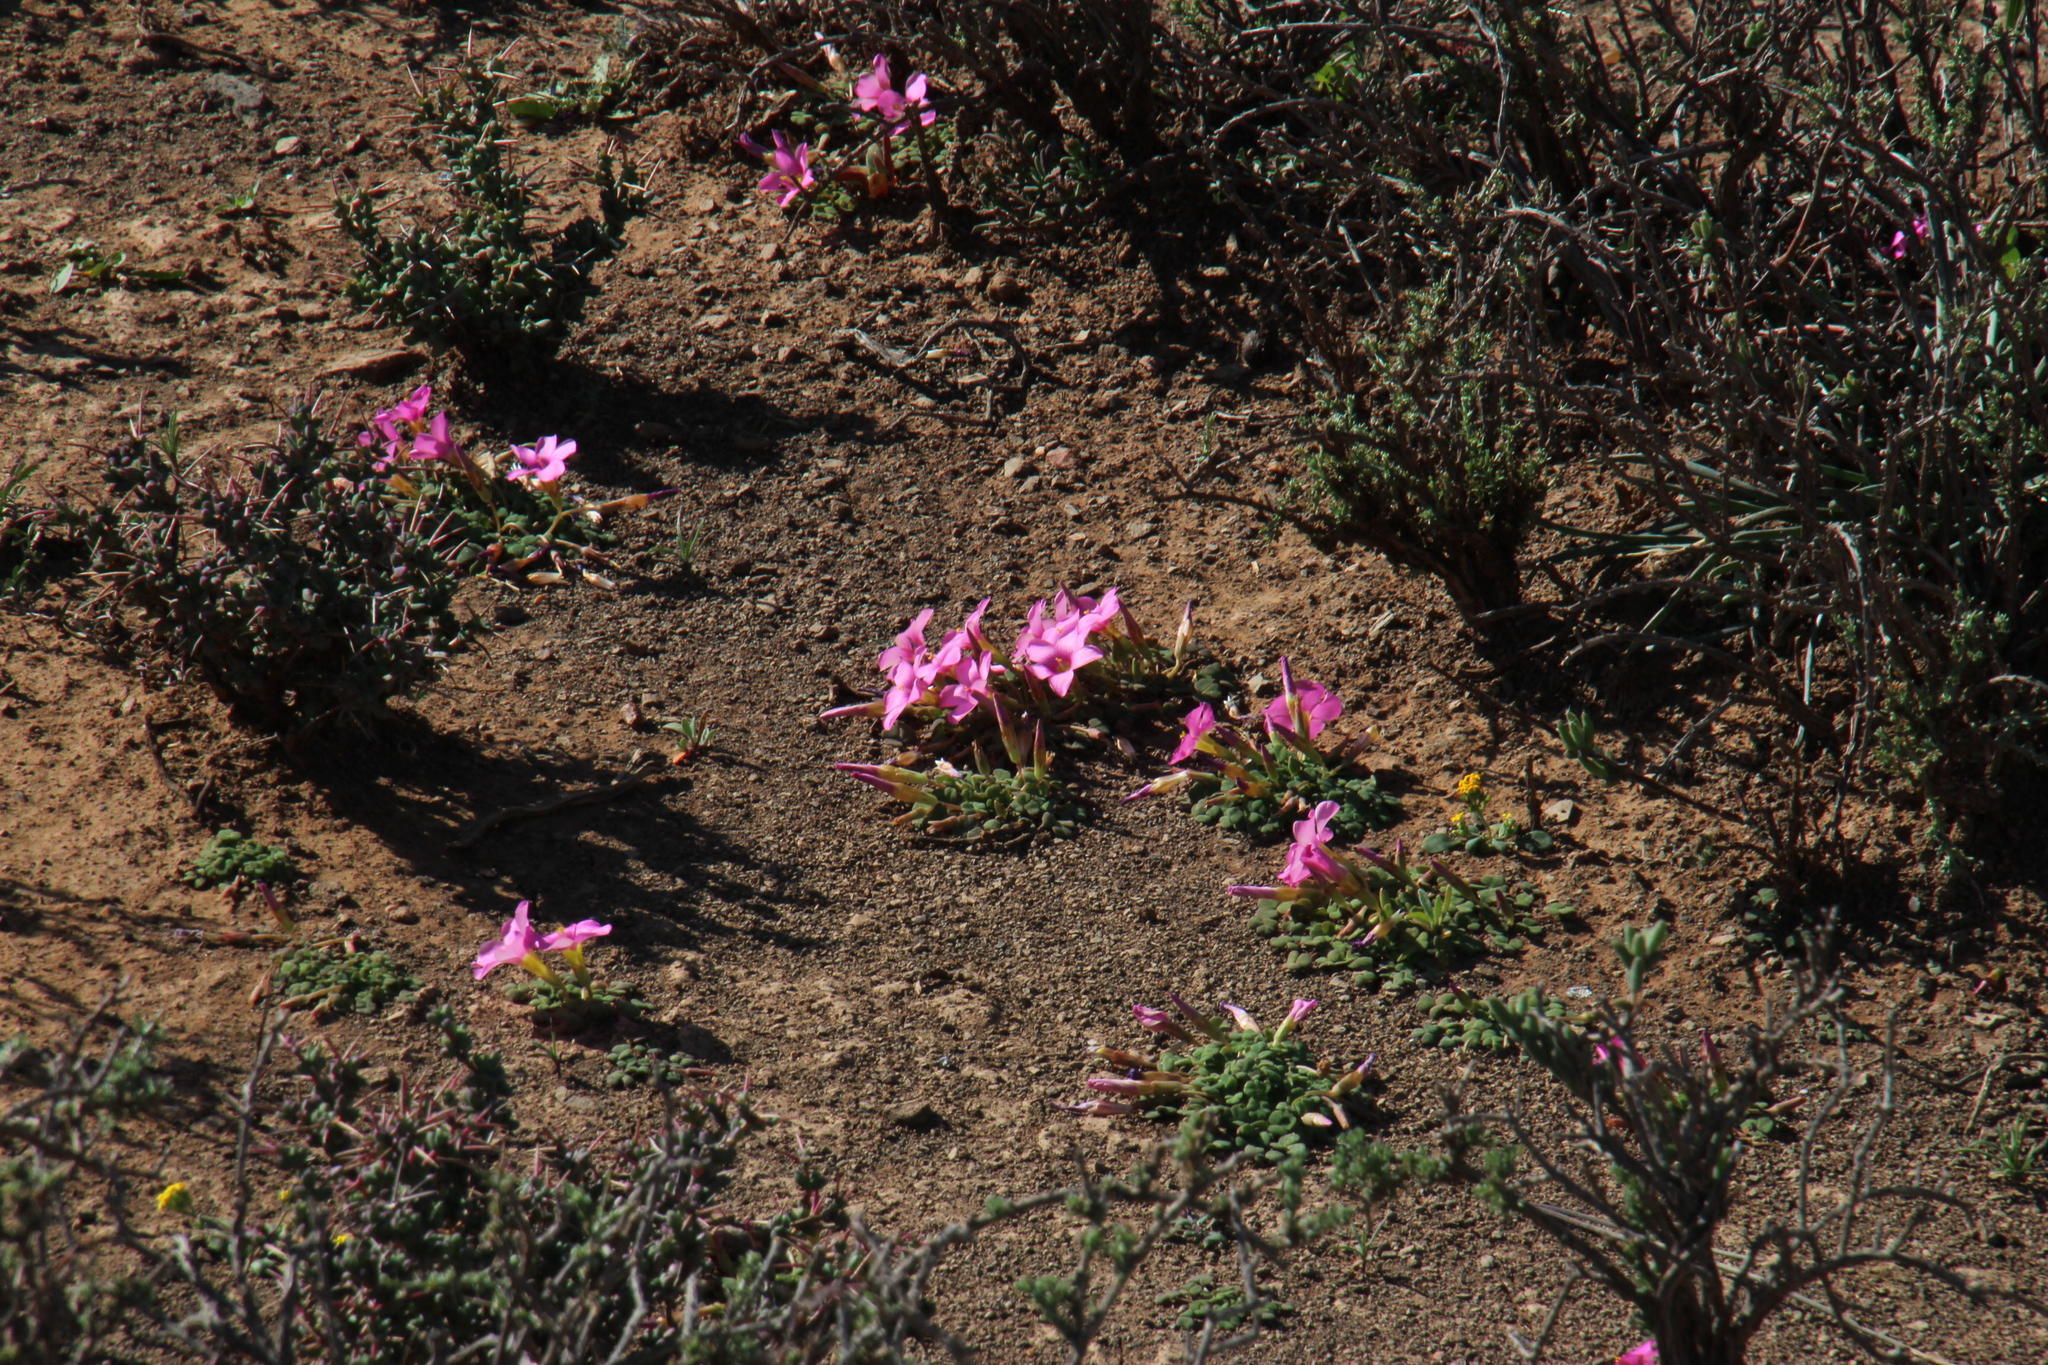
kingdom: Plantae
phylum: Tracheophyta
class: Magnoliopsida
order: Oxalidales
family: Oxalidaceae
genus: Oxalis
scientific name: Oxalis fergusoniae
